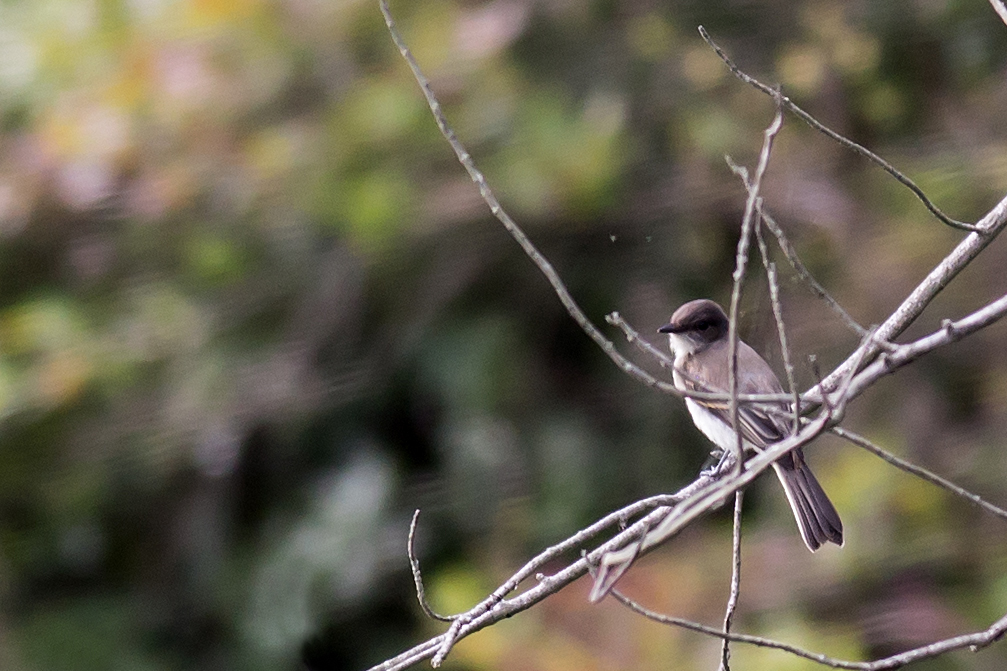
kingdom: Animalia
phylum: Chordata
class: Aves
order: Passeriformes
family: Tyrannidae
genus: Sayornis
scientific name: Sayornis phoebe
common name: Eastern phoebe
